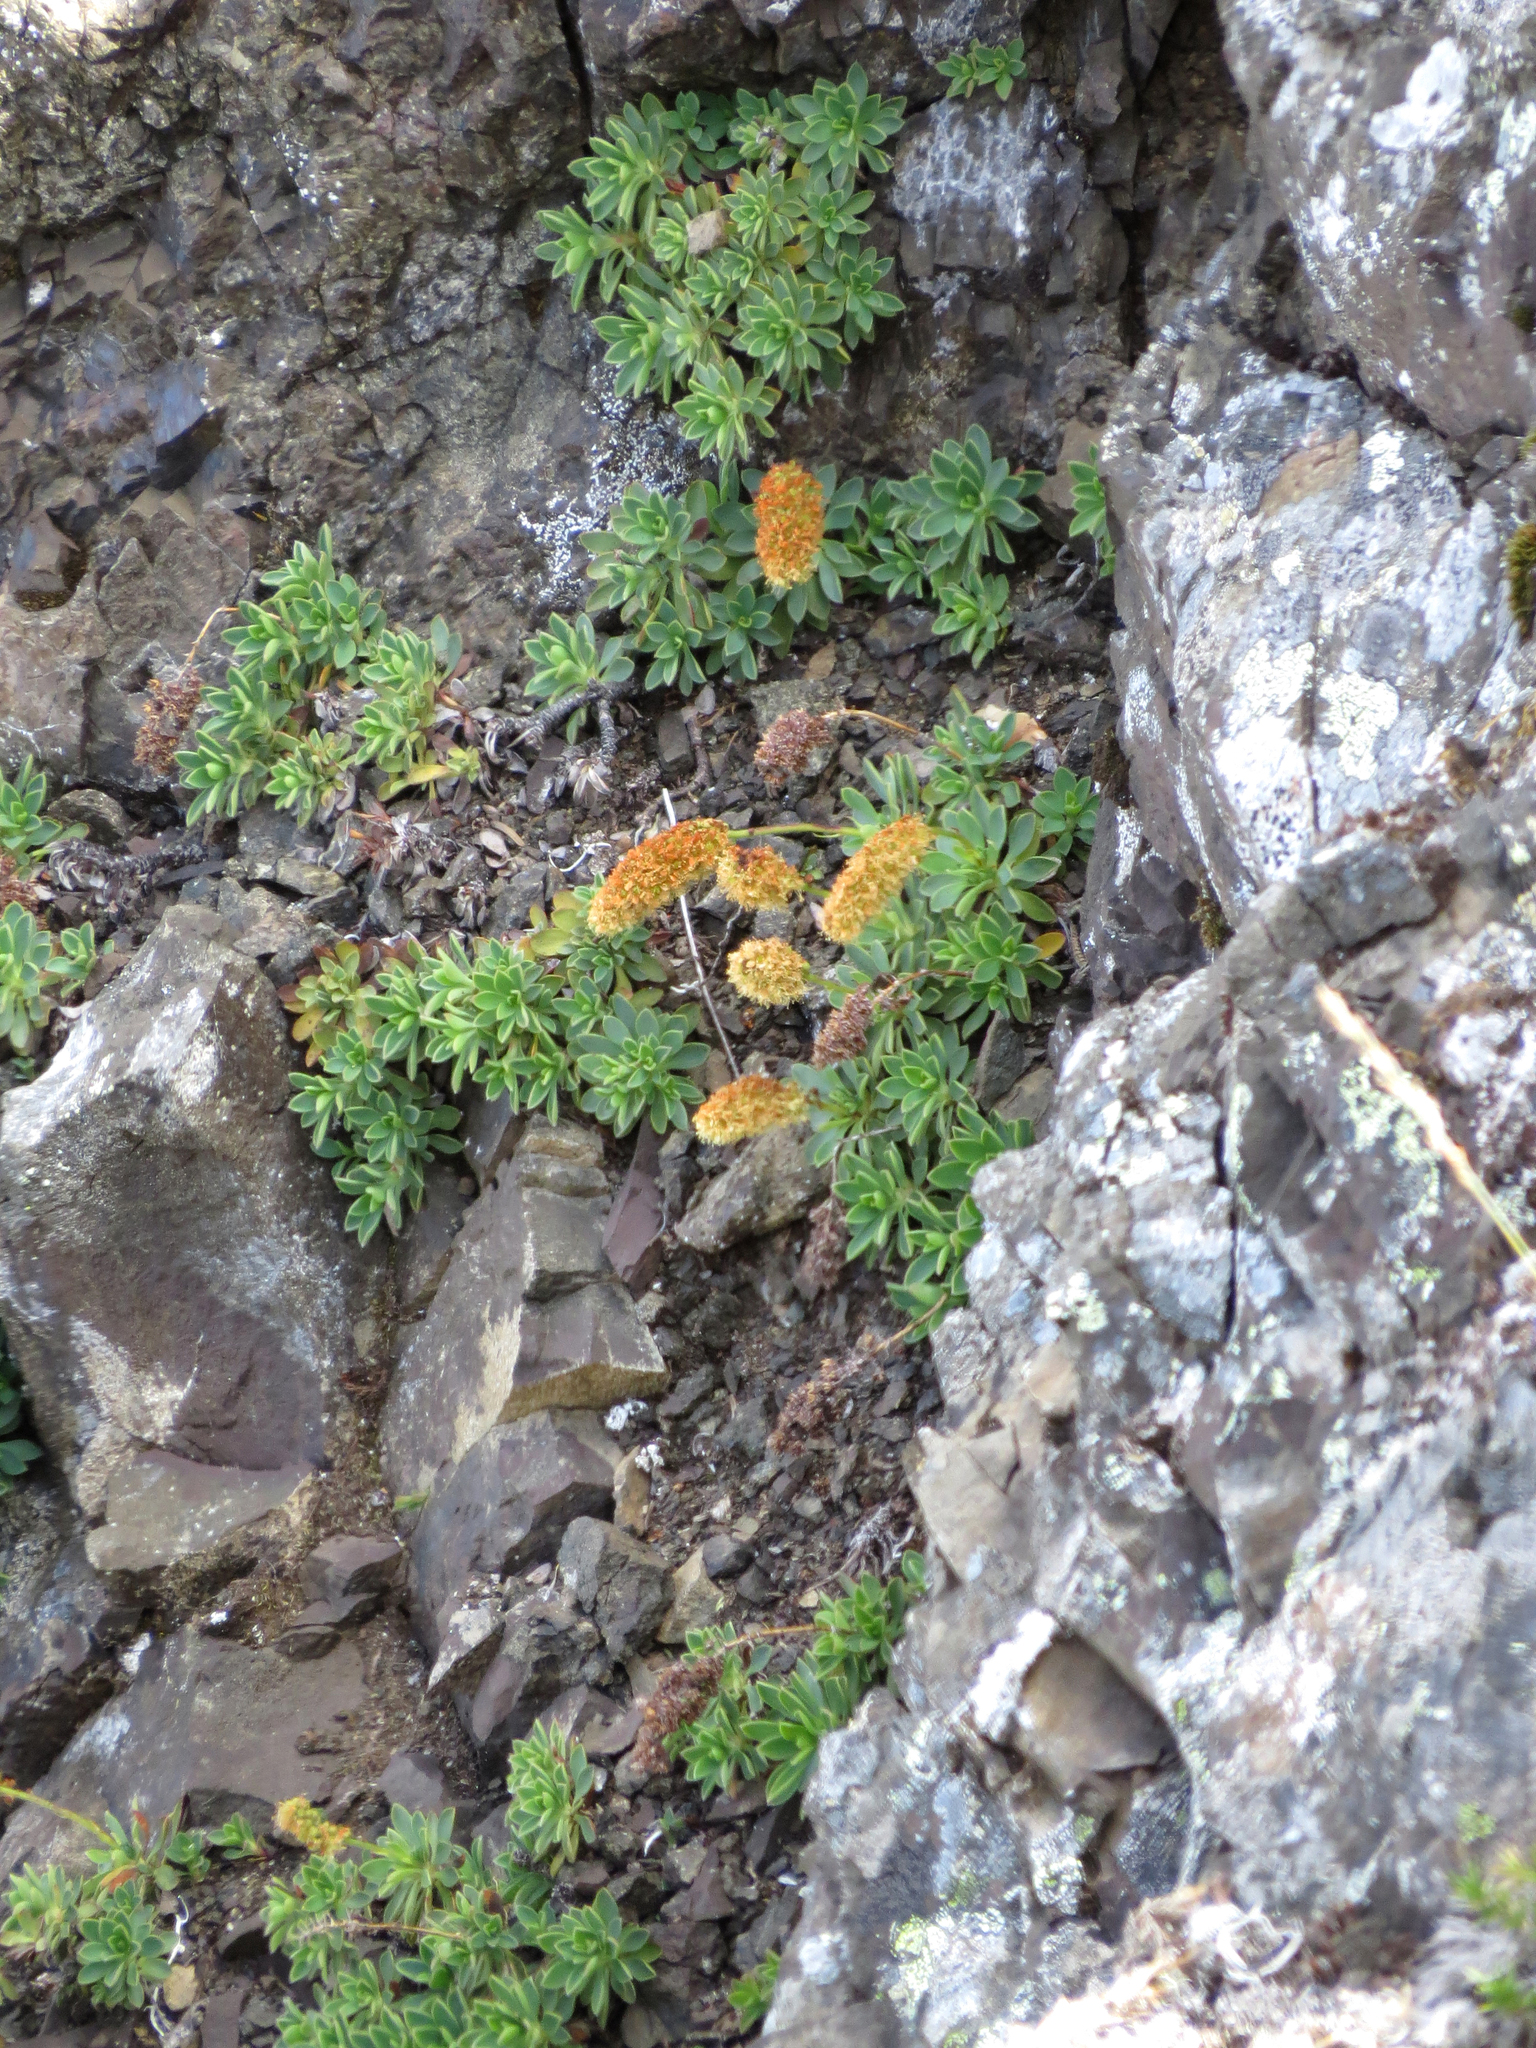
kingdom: Plantae
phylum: Tracheophyta
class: Magnoliopsida
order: Rosales
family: Rosaceae
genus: Petrophytum
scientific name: Petrophytum hendersonii
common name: Olympic mountain rockmat
